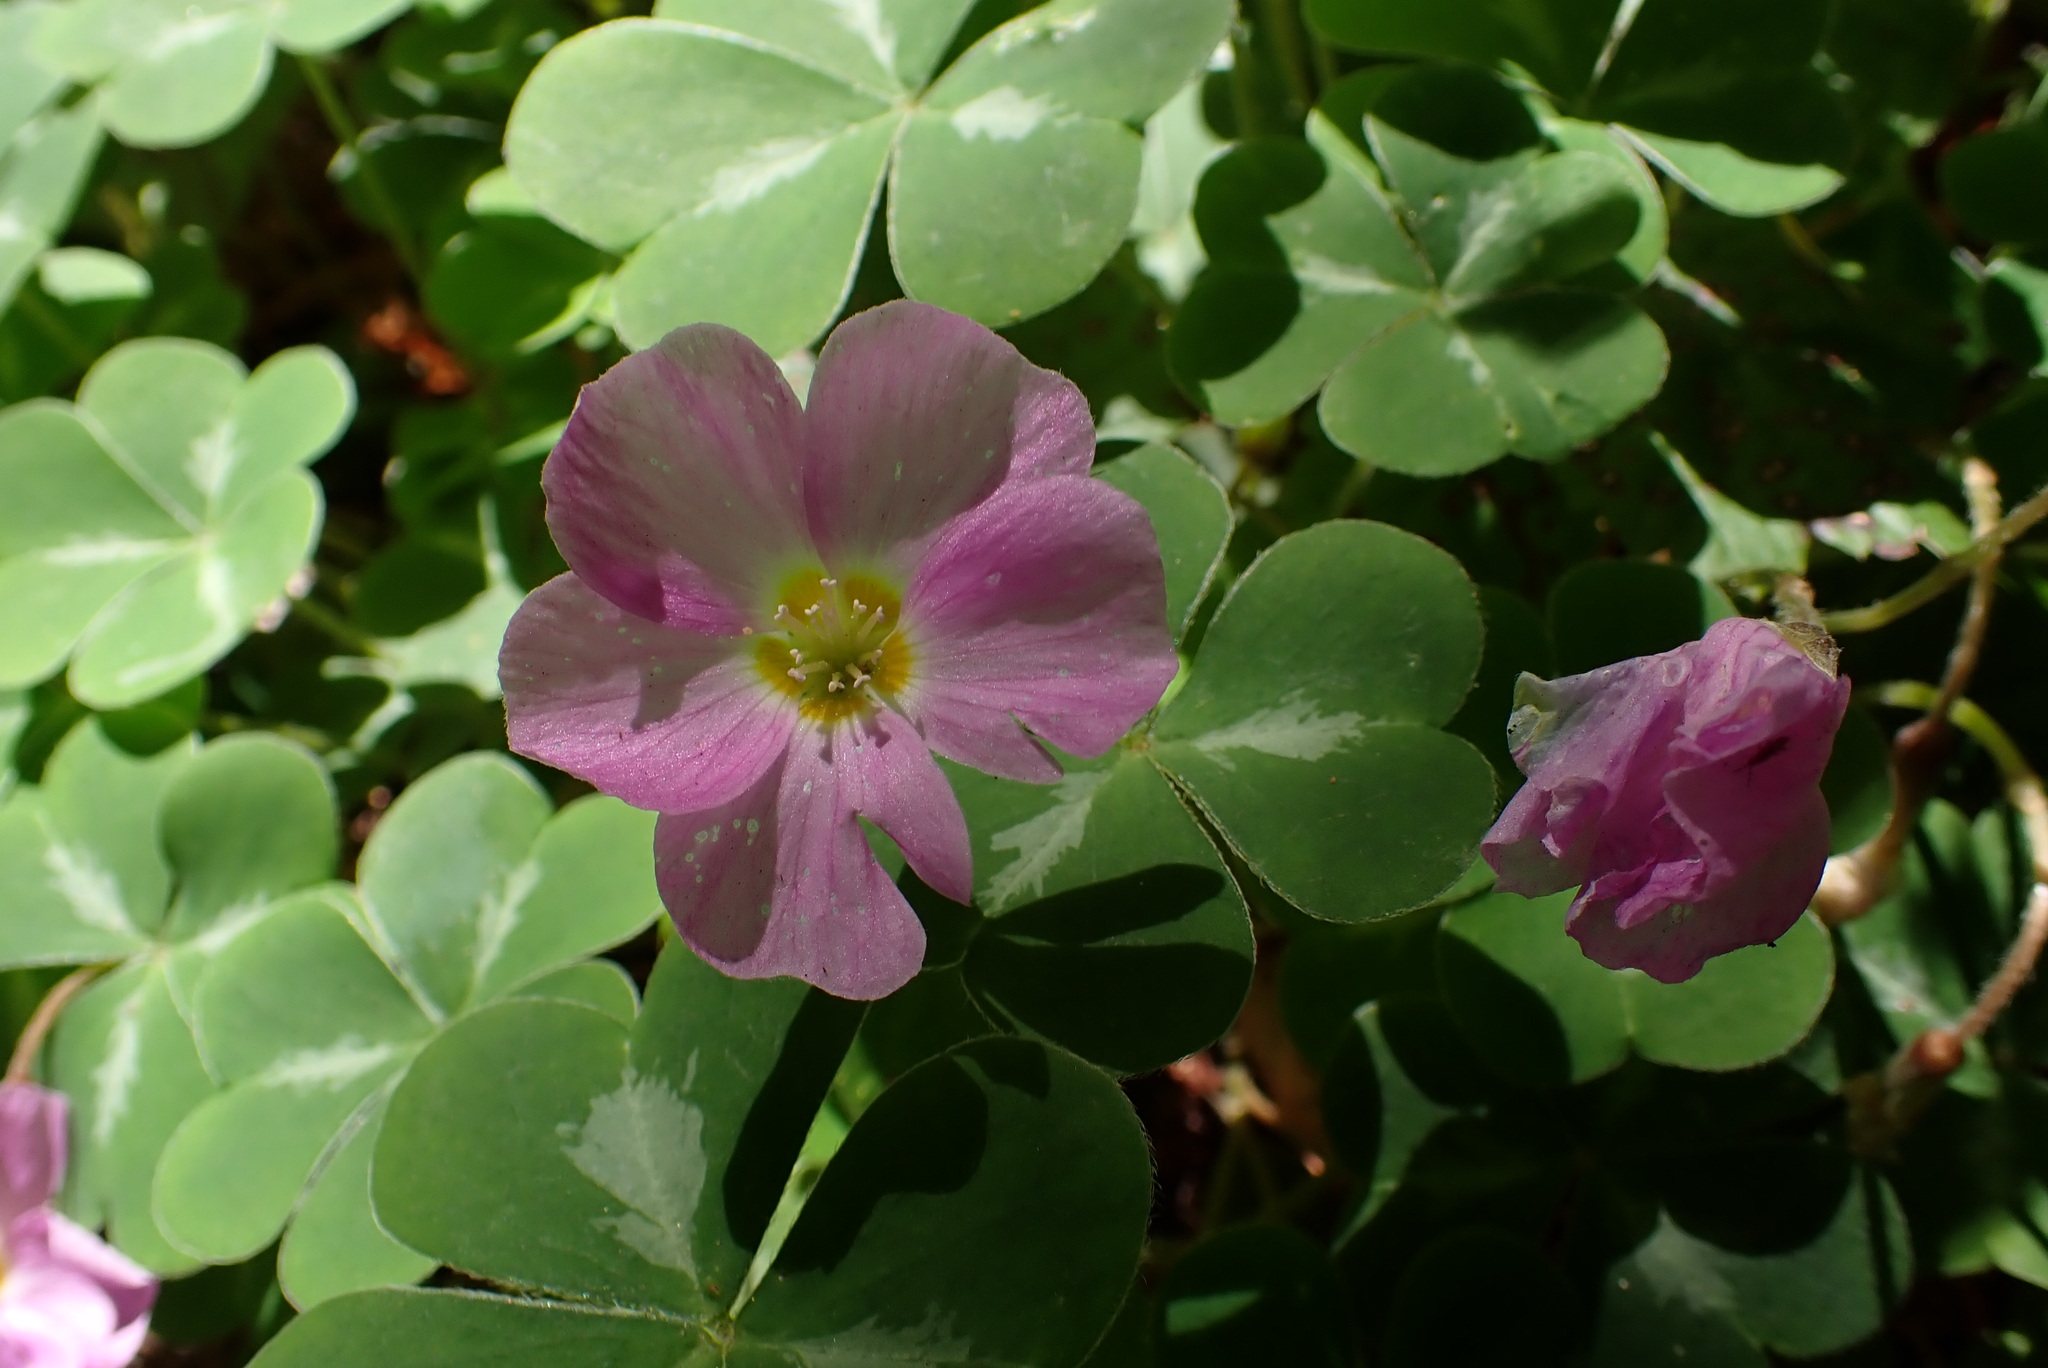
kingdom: Plantae
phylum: Tracheophyta
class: Magnoliopsida
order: Oxalidales
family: Oxalidaceae
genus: Oxalis
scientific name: Oxalis oregana
